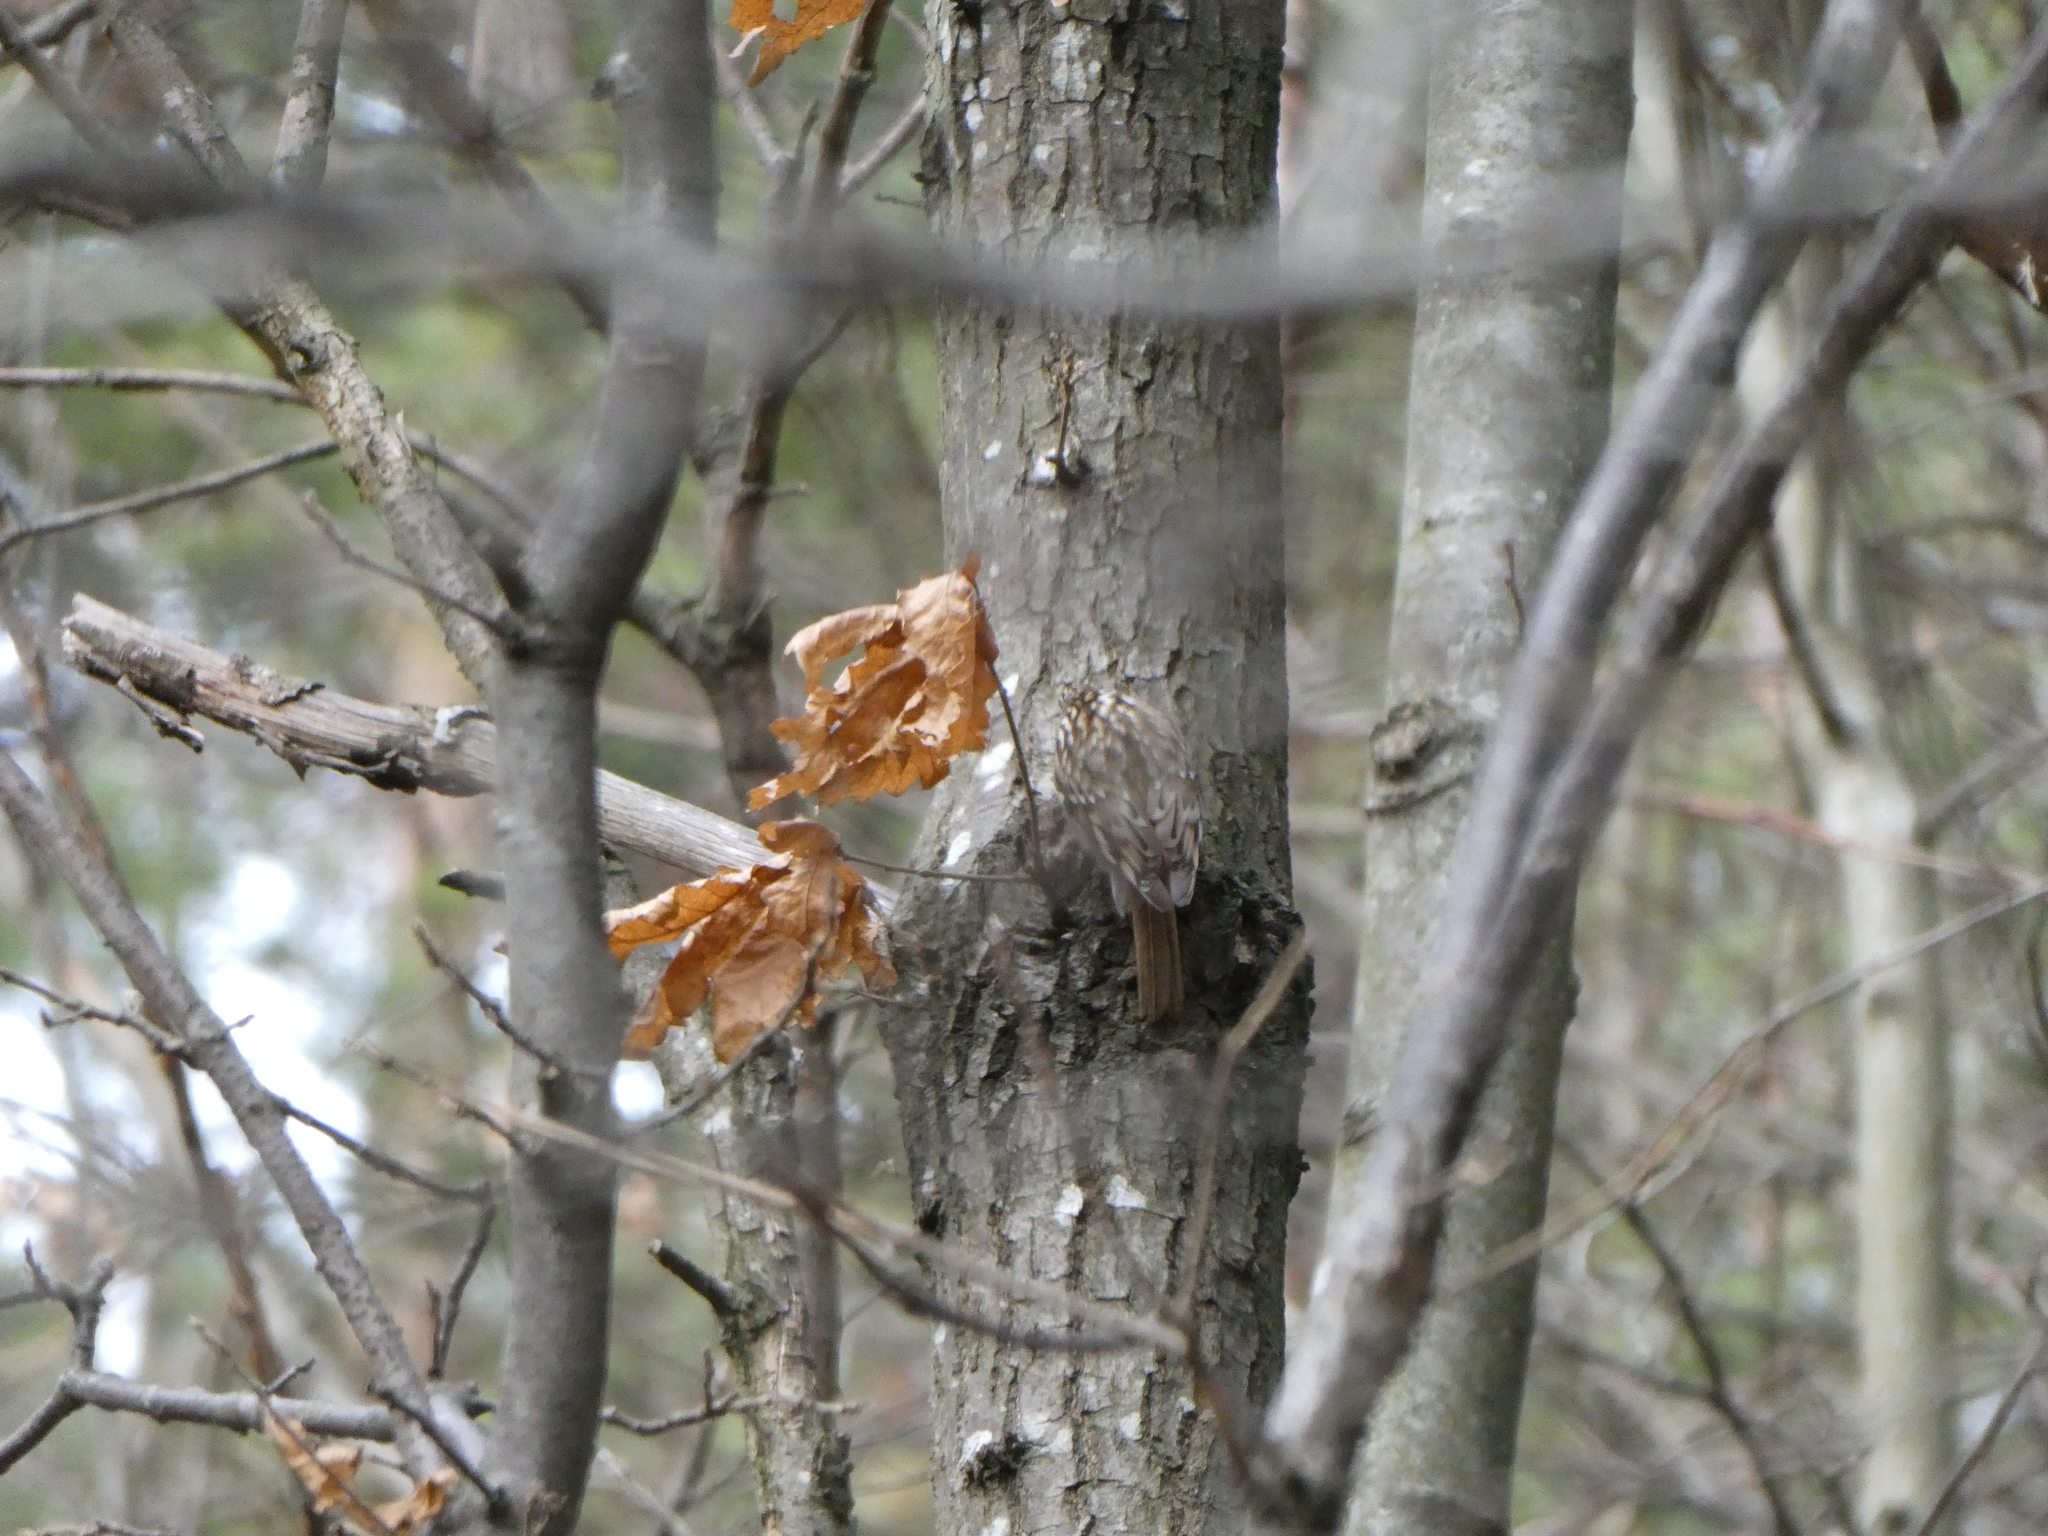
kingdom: Animalia
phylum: Chordata
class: Aves
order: Passeriformes
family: Certhiidae
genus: Certhia
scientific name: Certhia familiaris
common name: Eurasian treecreeper
